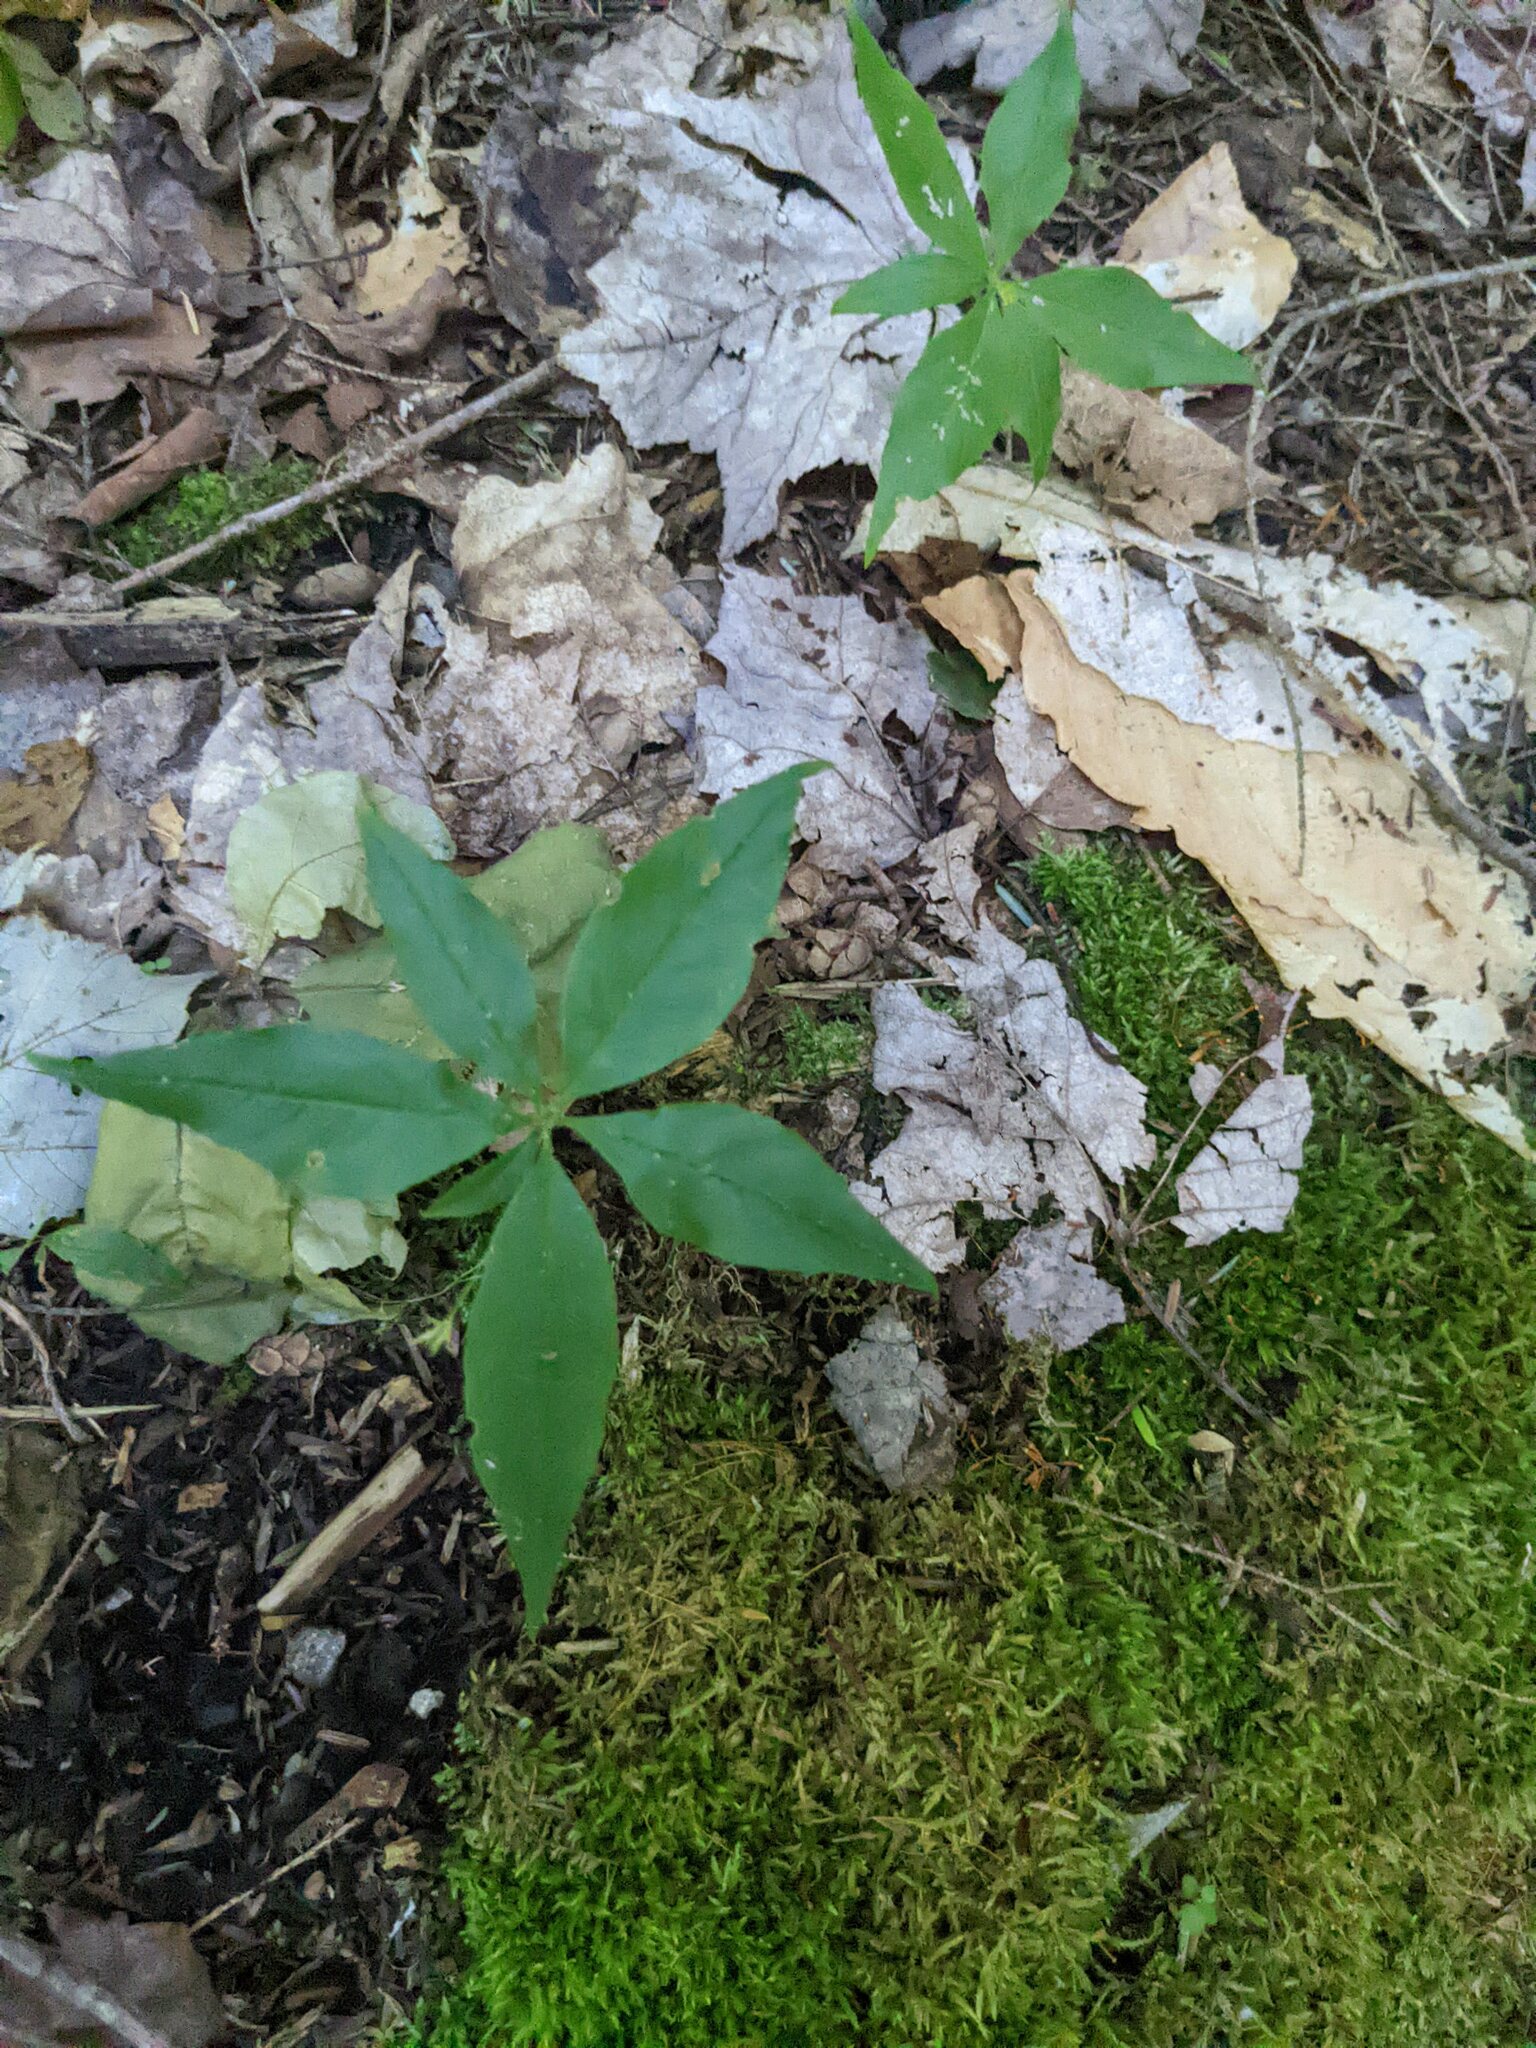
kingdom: Plantae
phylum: Tracheophyta
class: Magnoliopsida
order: Ericales
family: Primulaceae
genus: Lysimachia
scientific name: Lysimachia borealis
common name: American starflower
